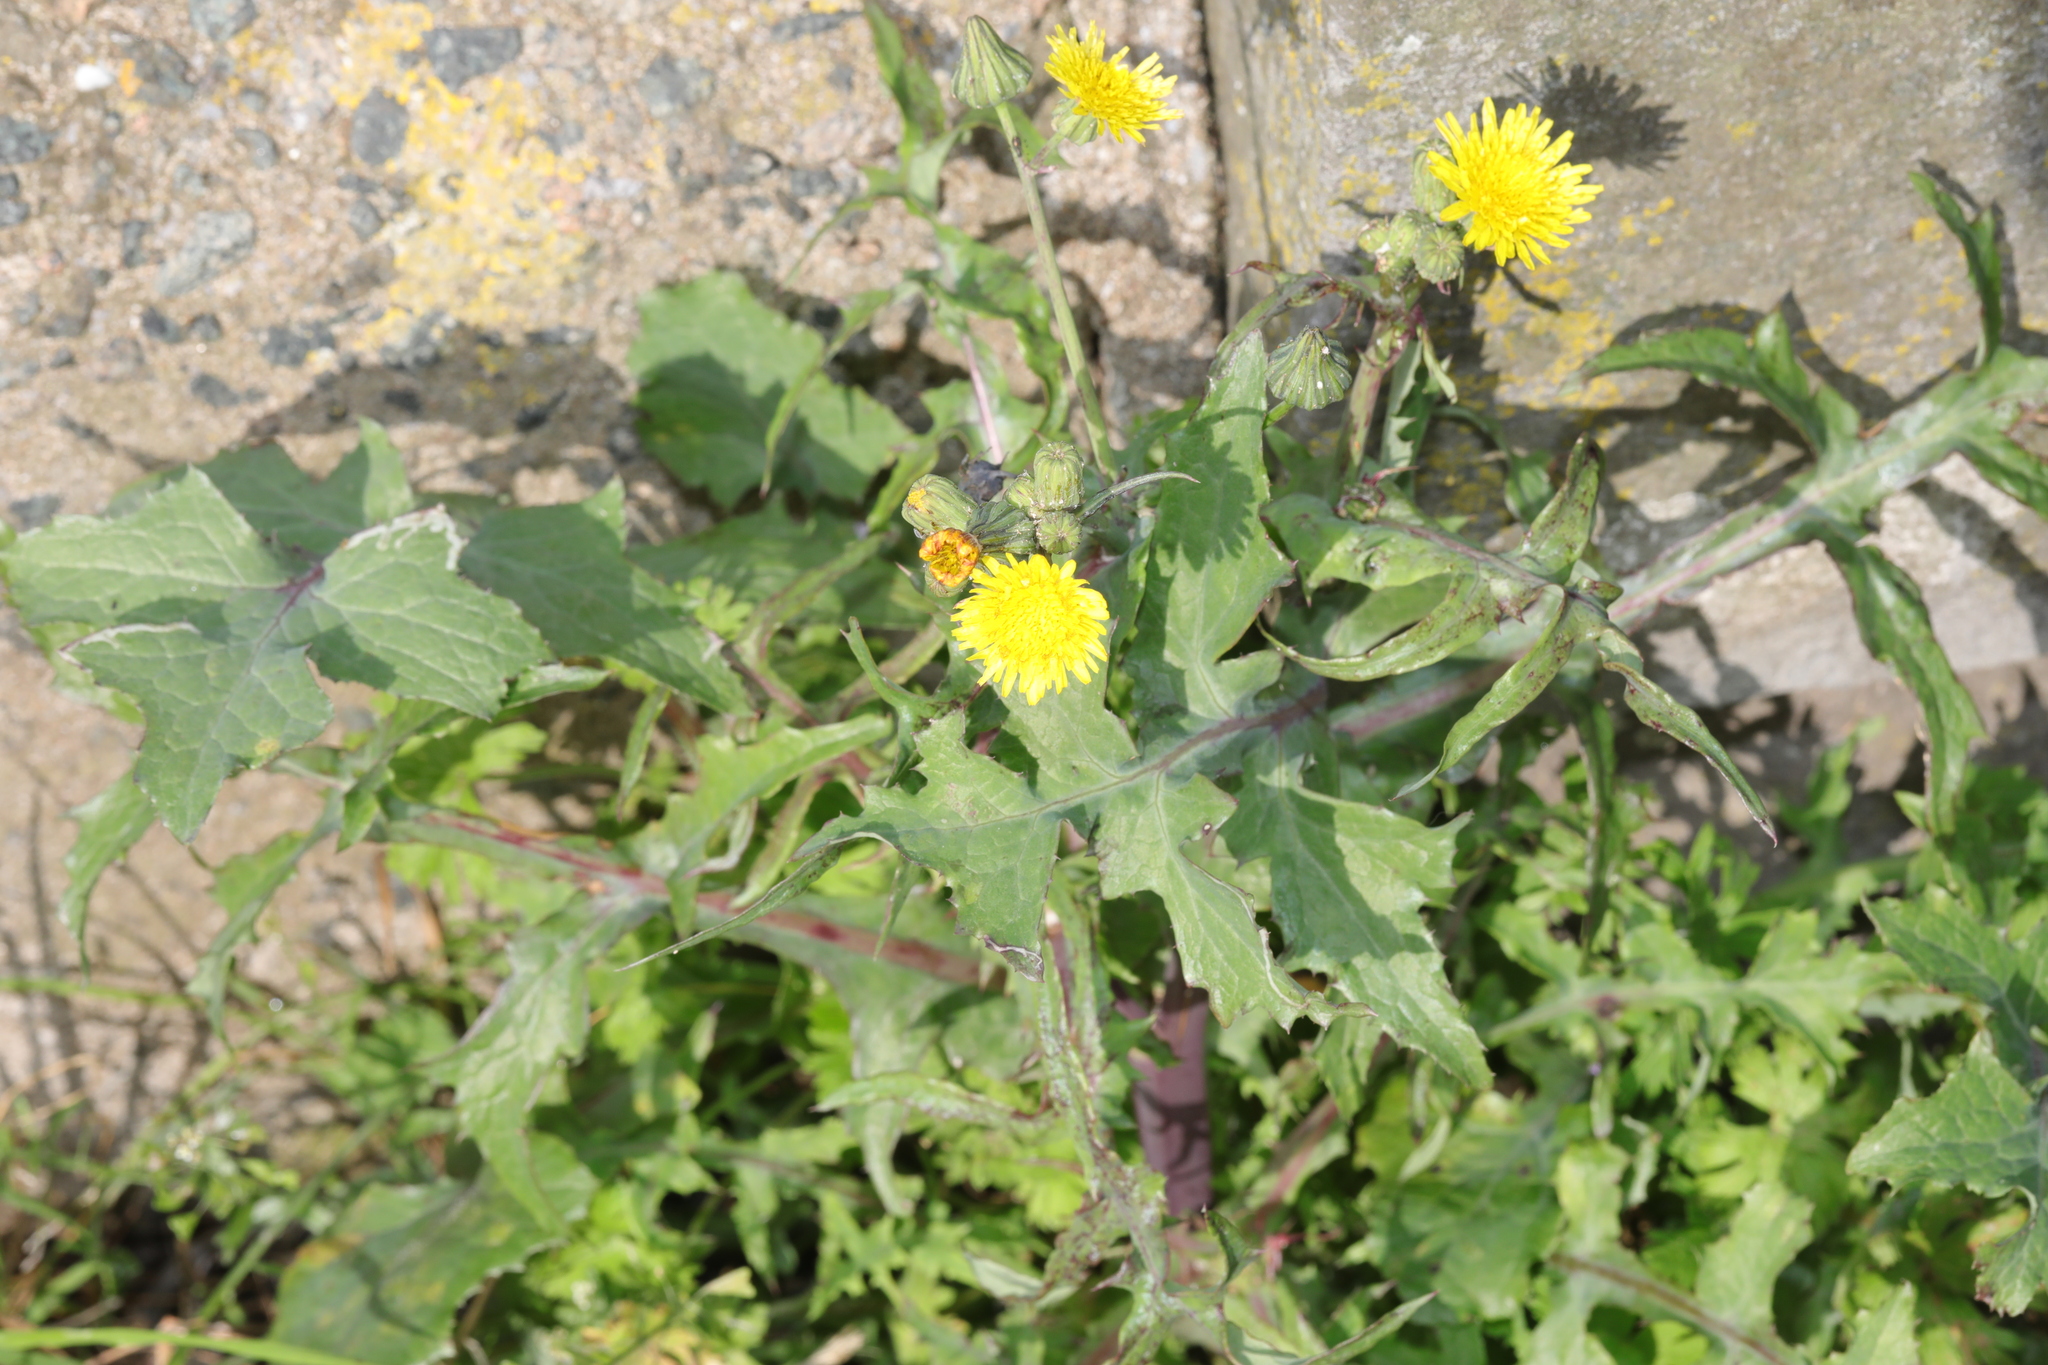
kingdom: Plantae
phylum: Tracheophyta
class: Magnoliopsida
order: Asterales
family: Asteraceae
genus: Sonchus
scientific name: Sonchus oleraceus
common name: Common sowthistle
